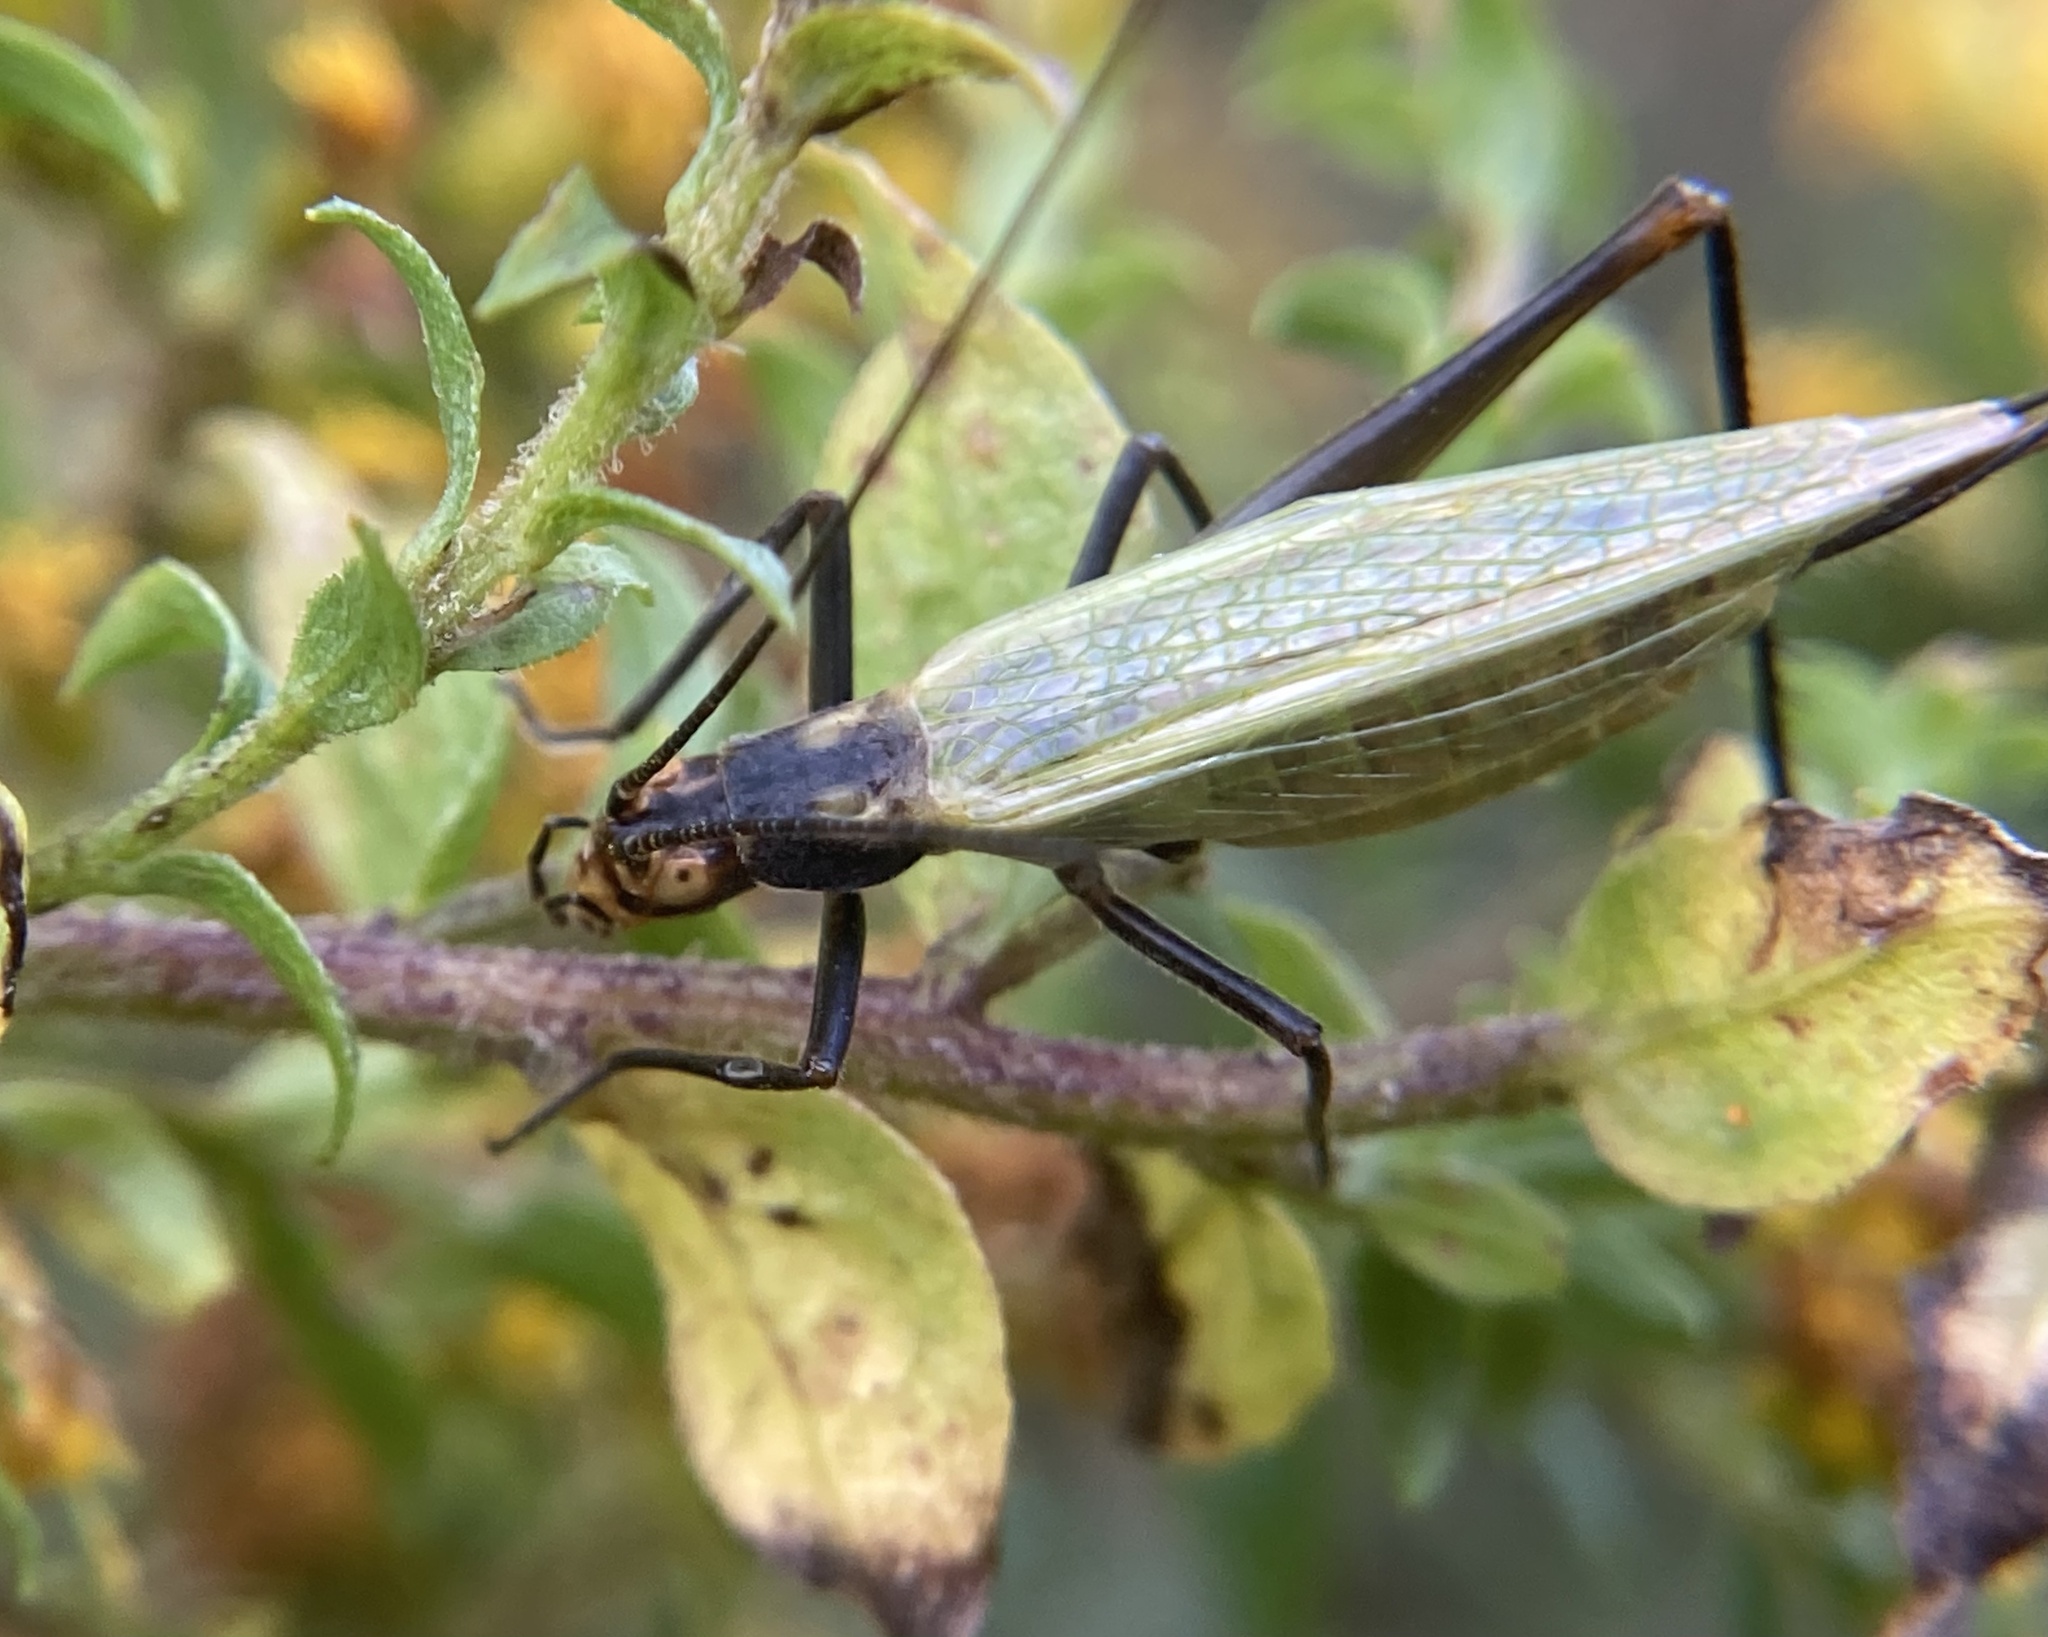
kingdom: Animalia
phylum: Arthropoda
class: Insecta
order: Orthoptera
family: Gryllidae
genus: Oecanthus
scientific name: Oecanthus nigricornis
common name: Black-horned tree cricket
